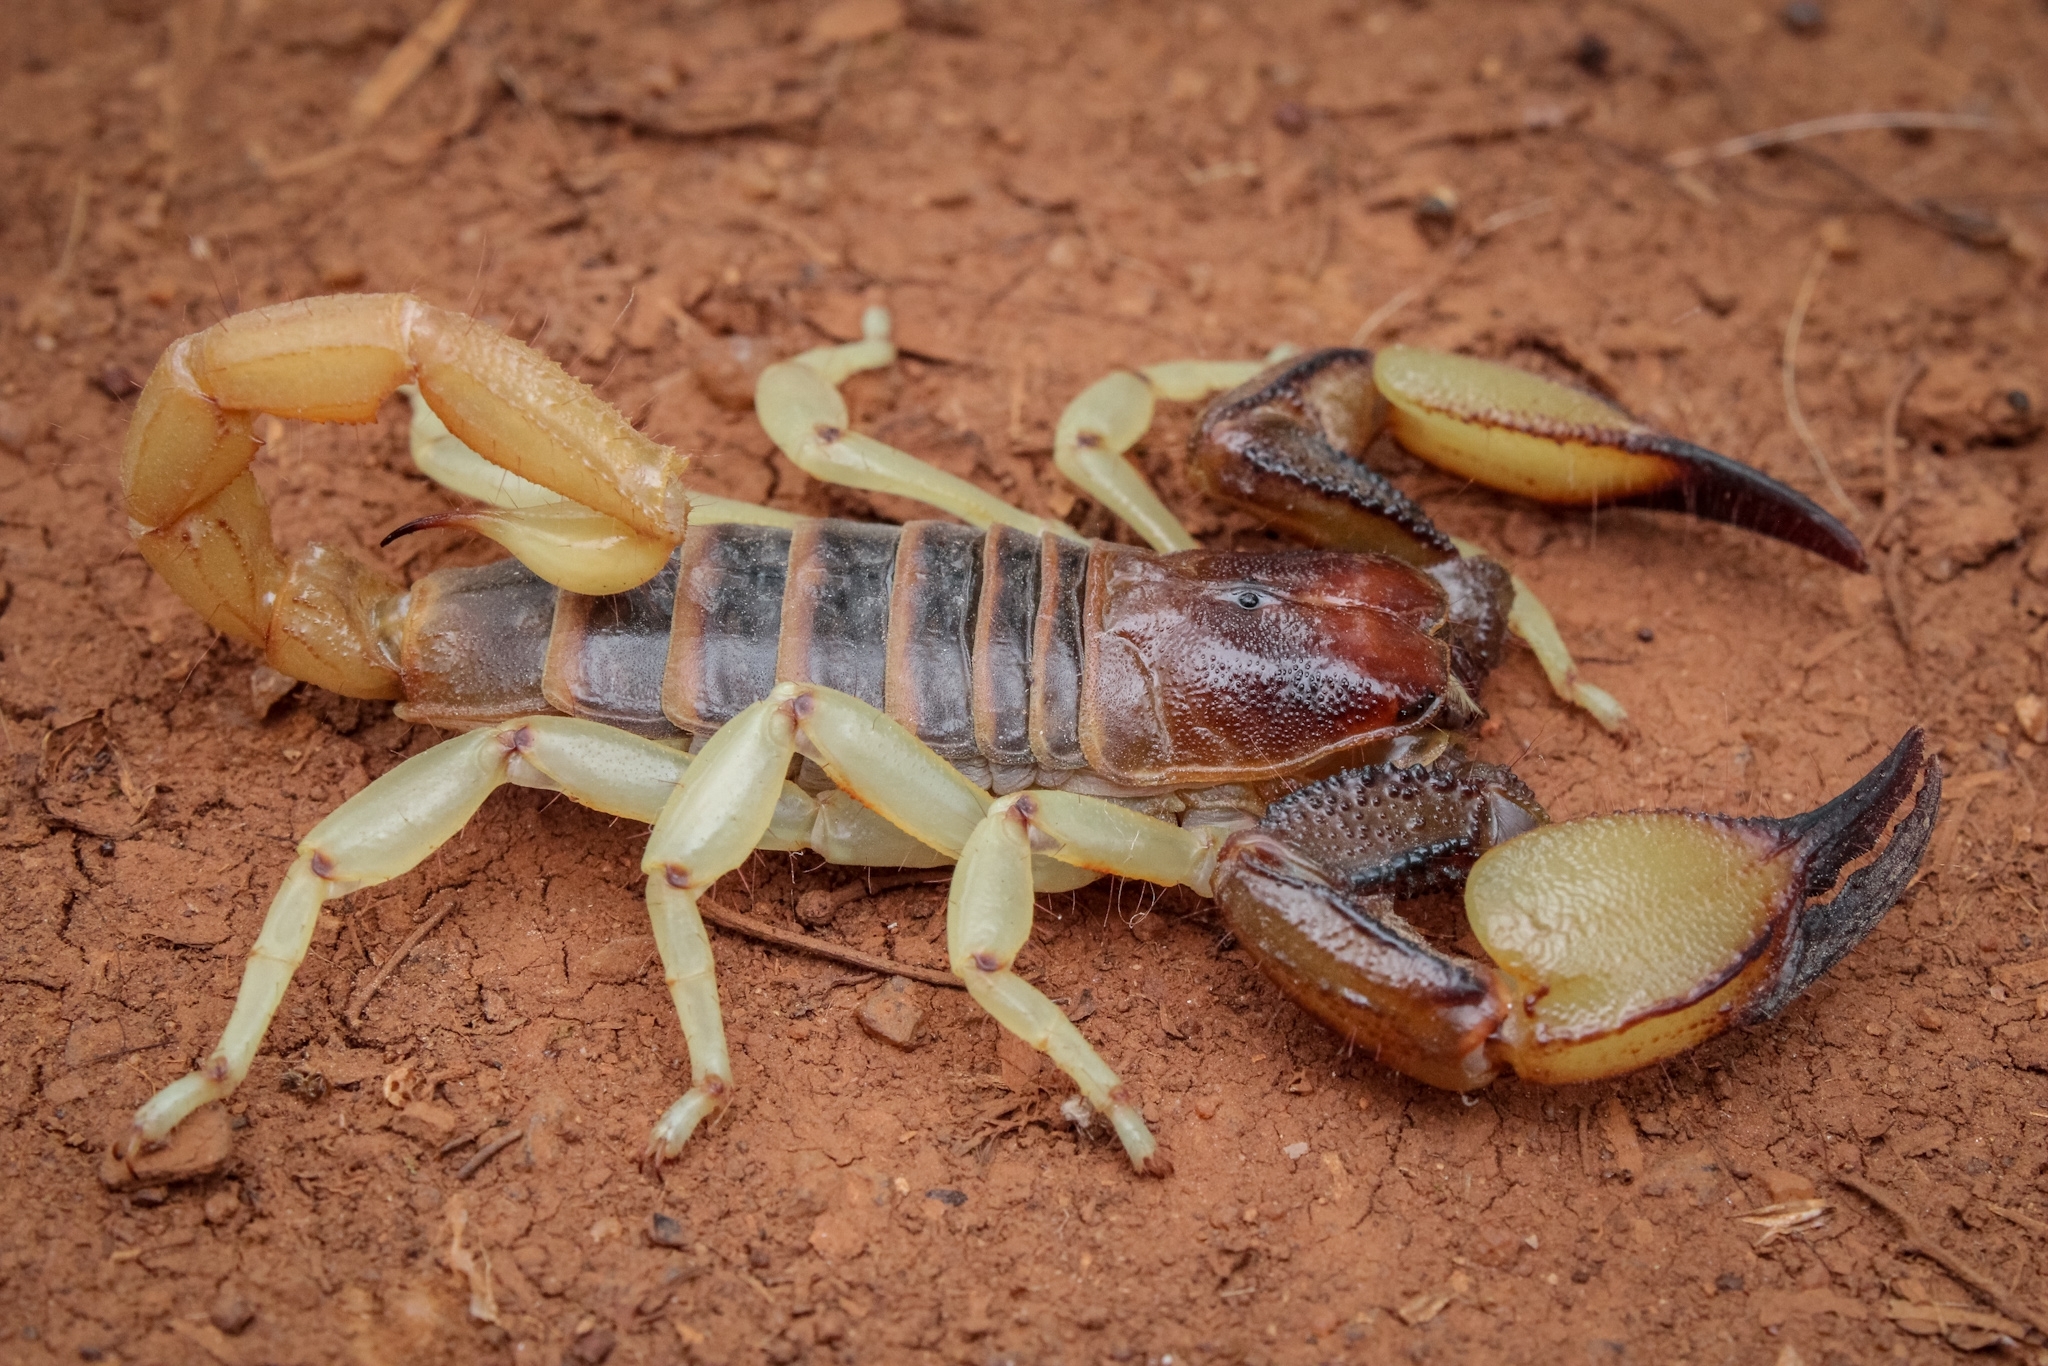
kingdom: Animalia
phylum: Arthropoda
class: Arachnida
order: Scorpiones
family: Scorpionidae
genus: Opistophthalmus
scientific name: Opistophthalmus carinatus
